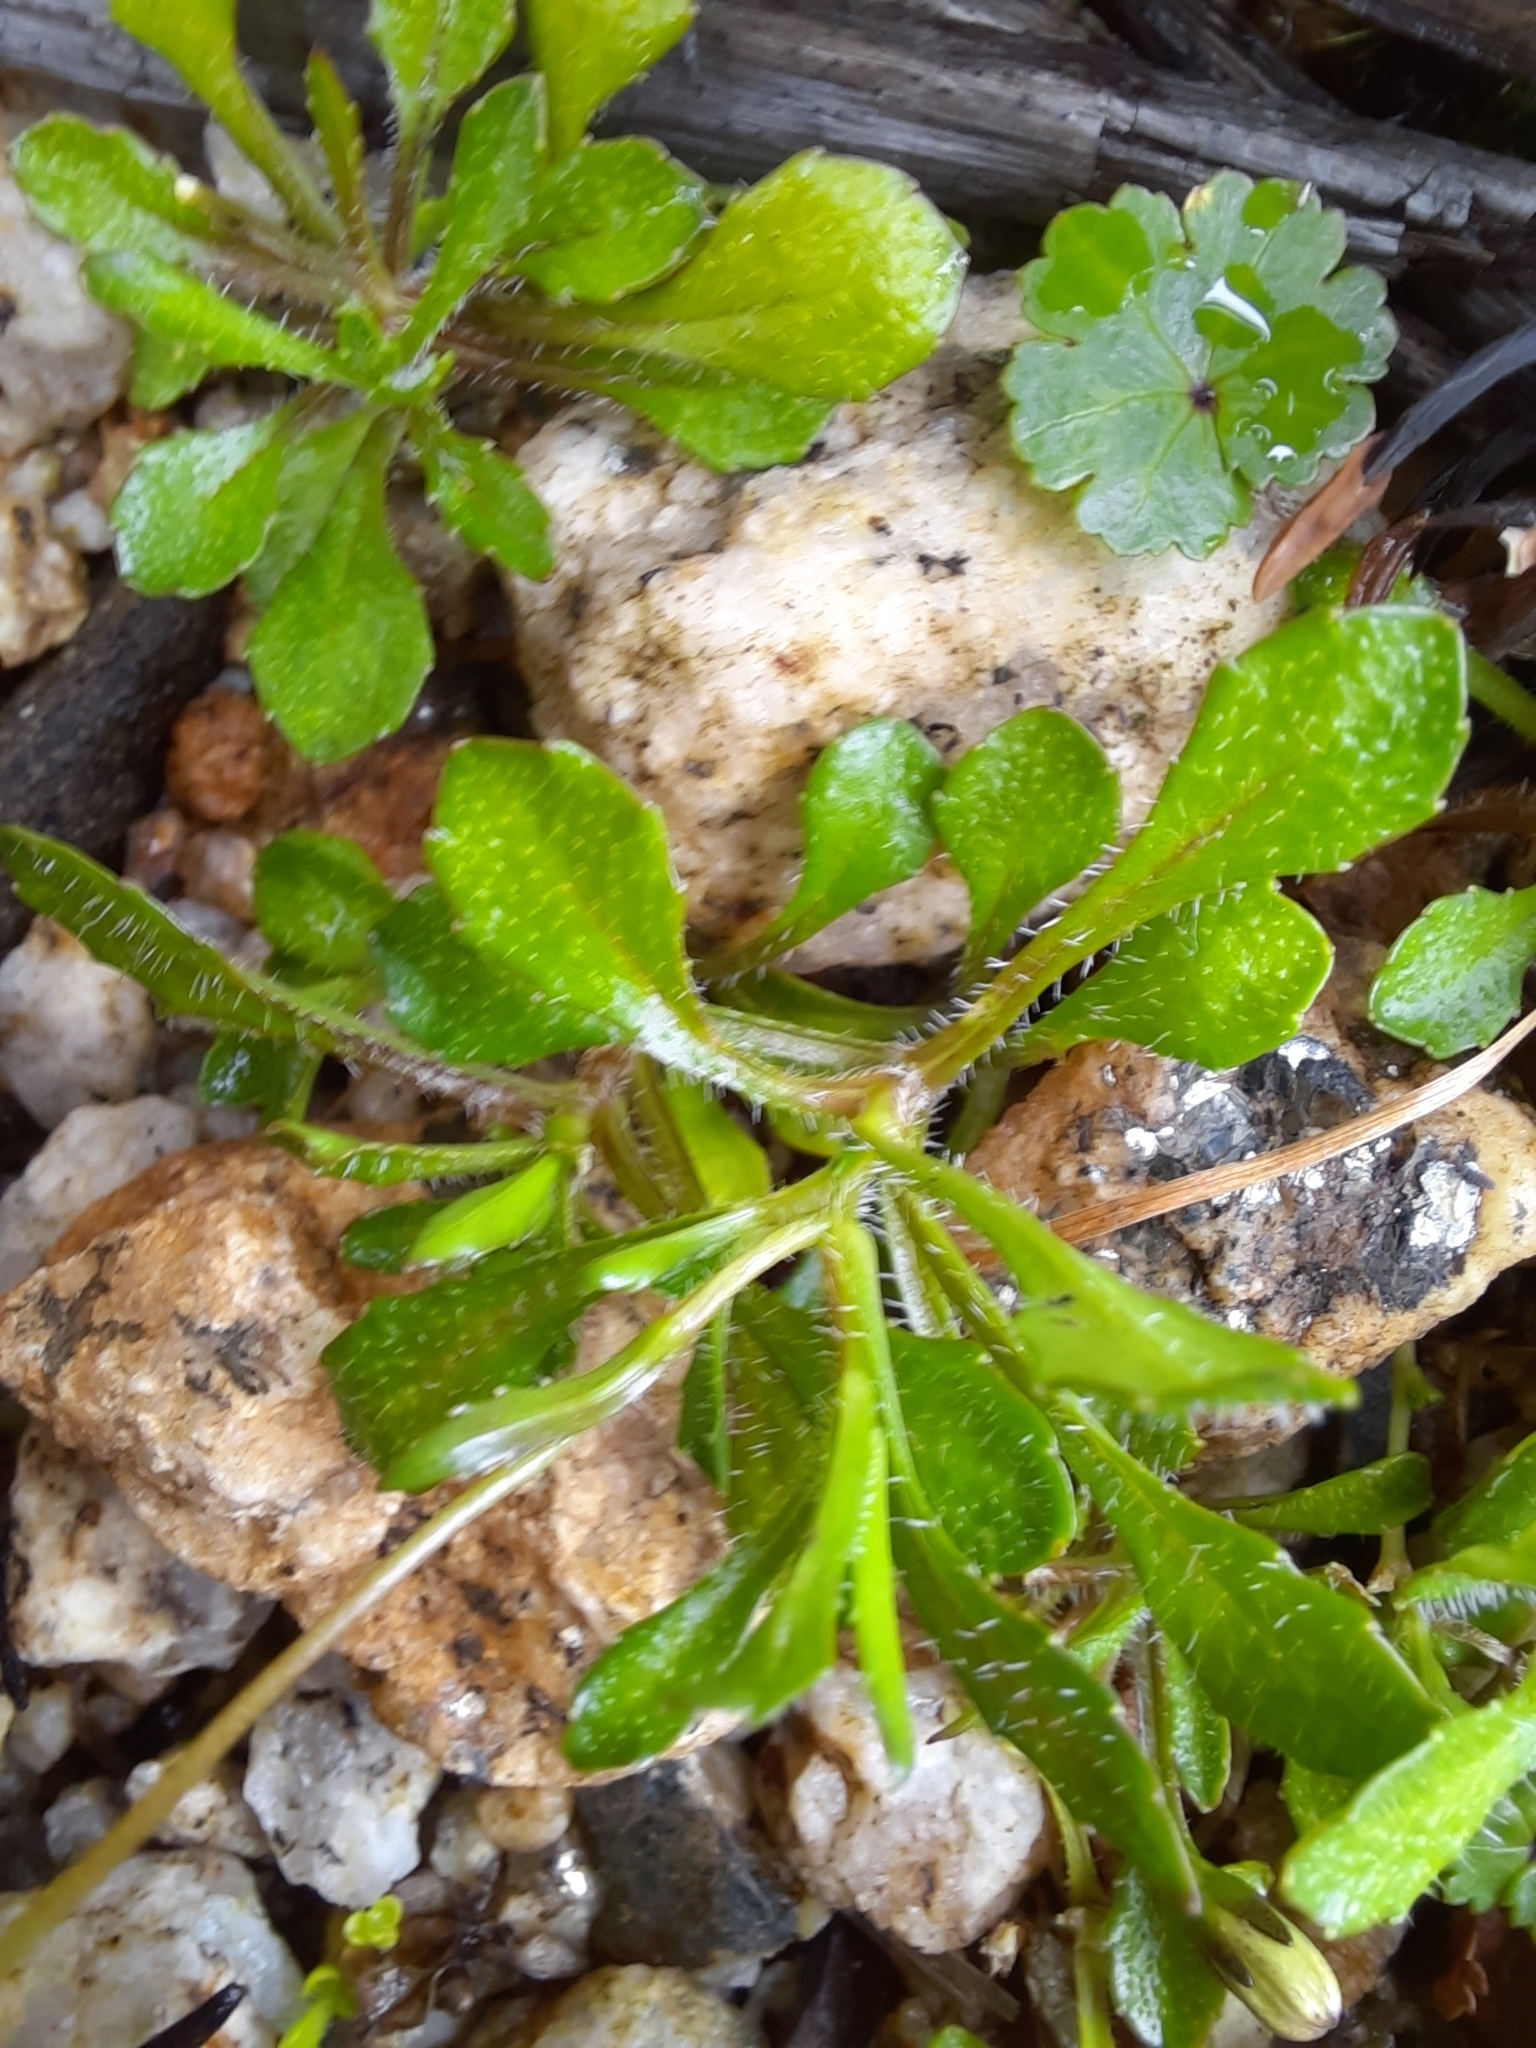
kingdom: Plantae
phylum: Tracheophyta
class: Magnoliopsida
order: Asterales
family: Campanulaceae
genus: Wahlenbergia
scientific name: Wahlenbergia albomarginata
